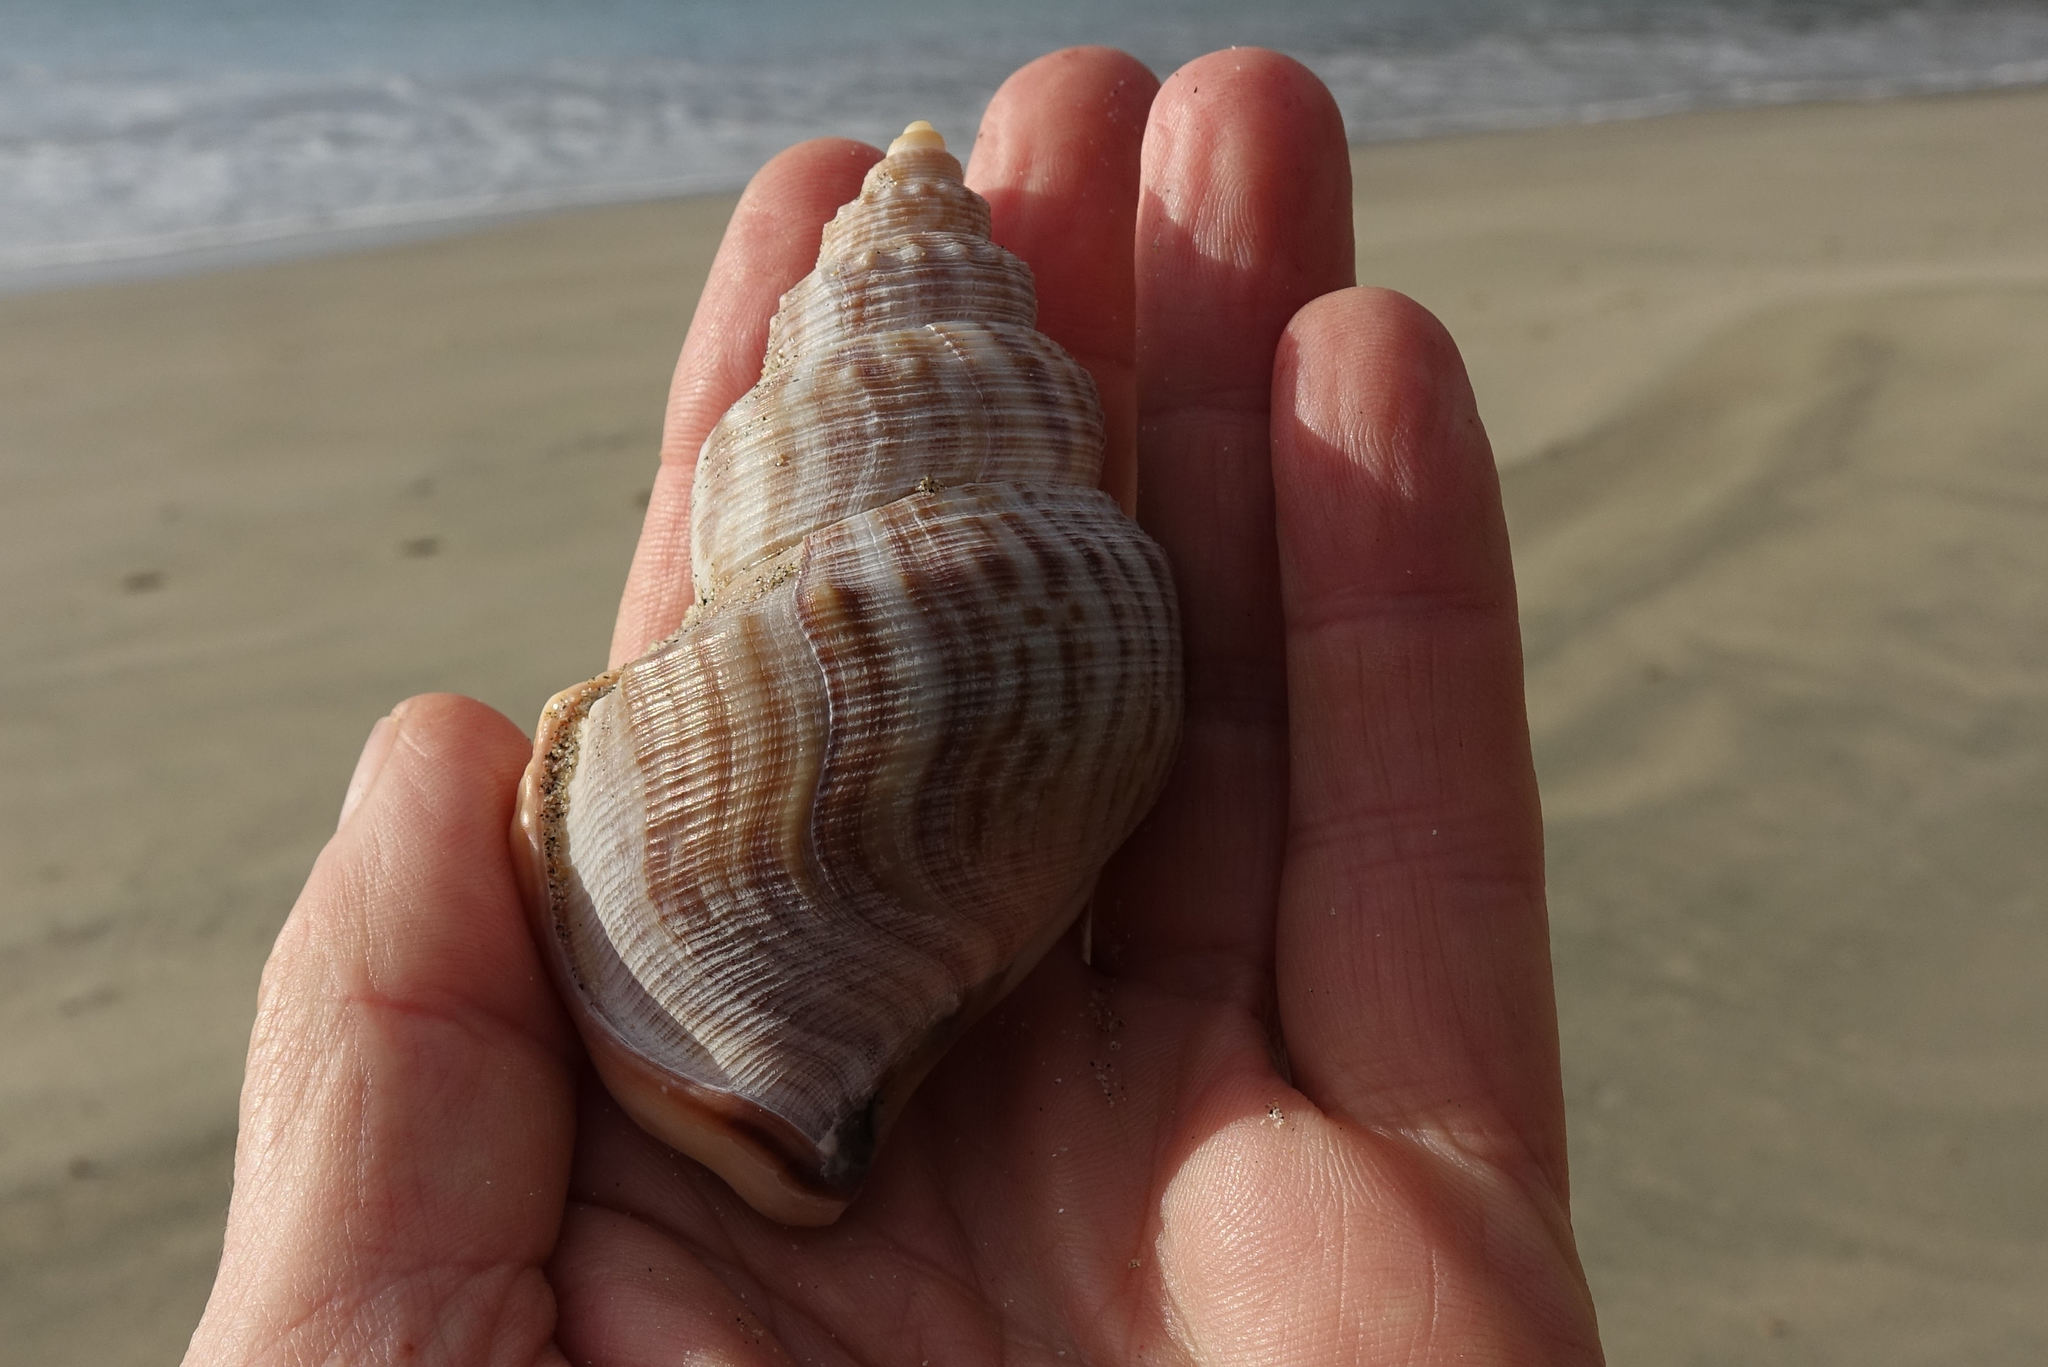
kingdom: Animalia
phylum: Mollusca
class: Gastropoda
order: Littorinimorpha
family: Struthiolariidae
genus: Struthiolaria
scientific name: Struthiolaria papulosa
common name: Large ostrich foot
